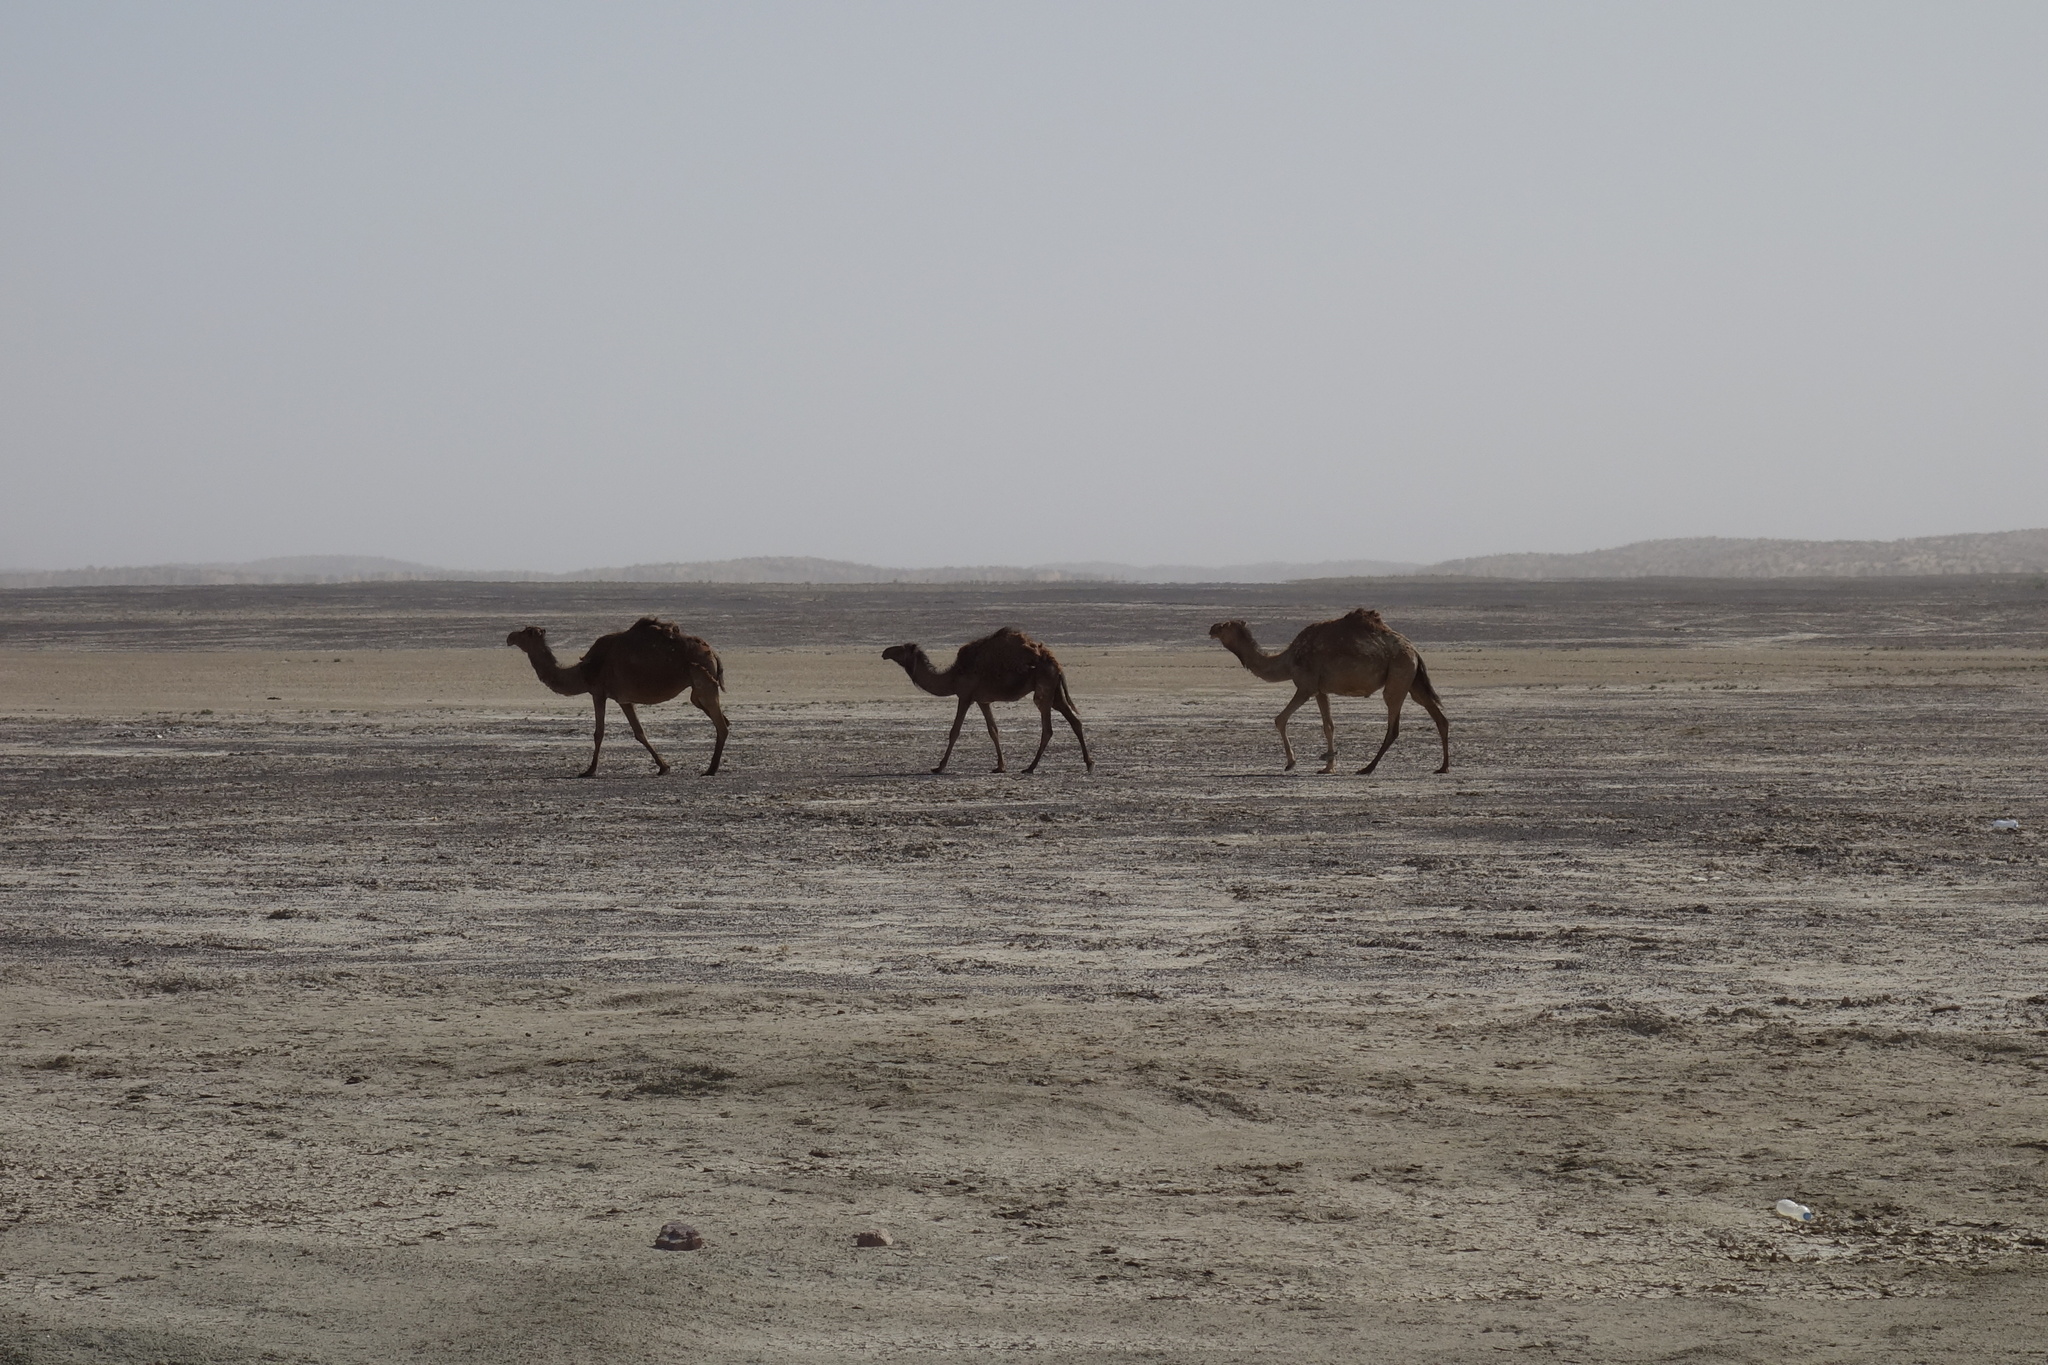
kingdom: Animalia
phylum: Chordata
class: Mammalia
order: Artiodactyla
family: Camelidae
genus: Camelus
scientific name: Camelus dromedarius
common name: One-humped camel
